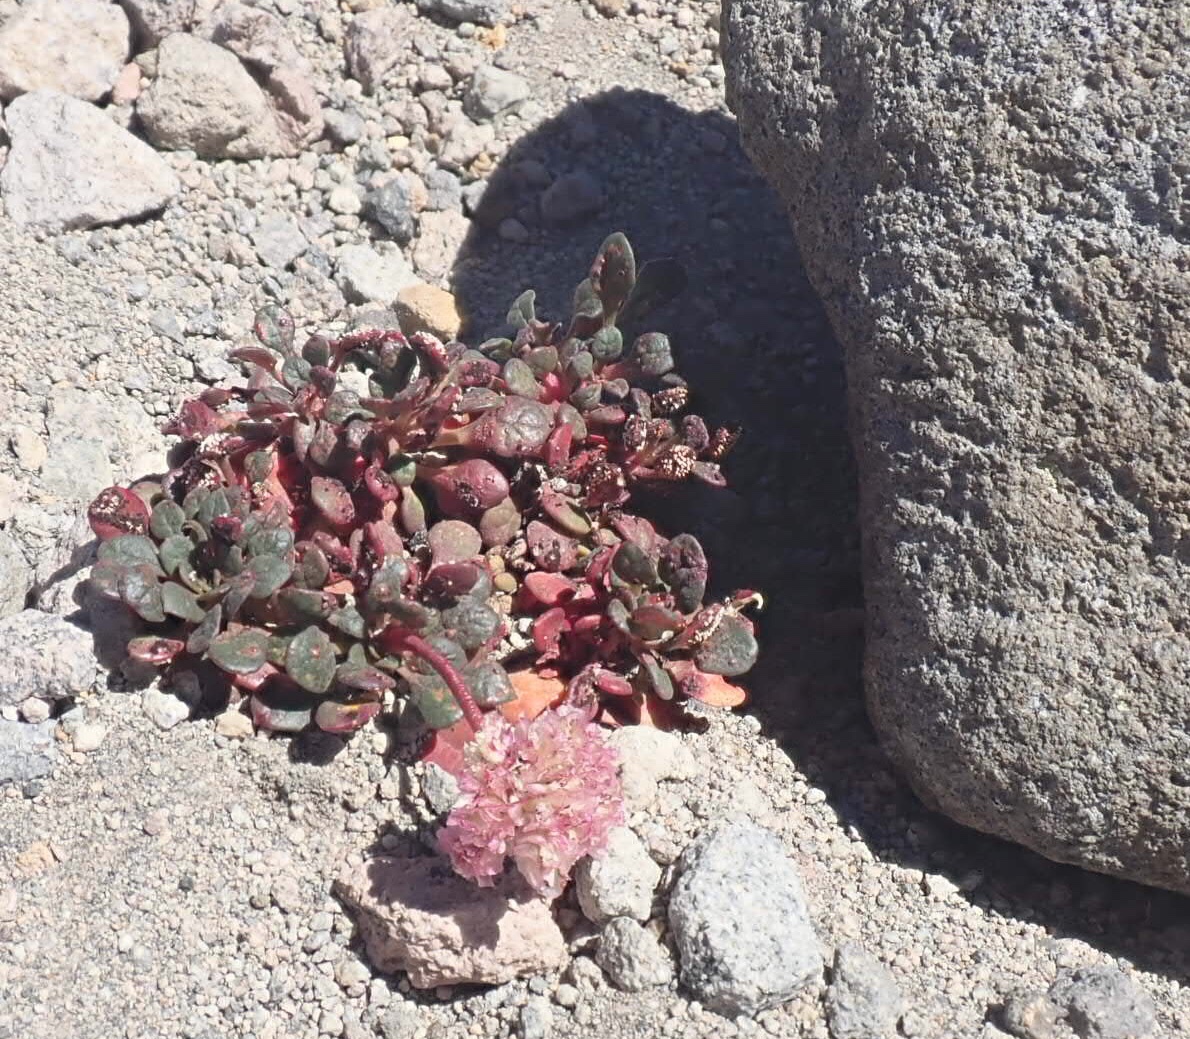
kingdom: Plantae
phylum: Tracheophyta
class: Magnoliopsida
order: Caryophyllales
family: Montiaceae
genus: Calyptridium
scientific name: Calyptridium umbellatum
